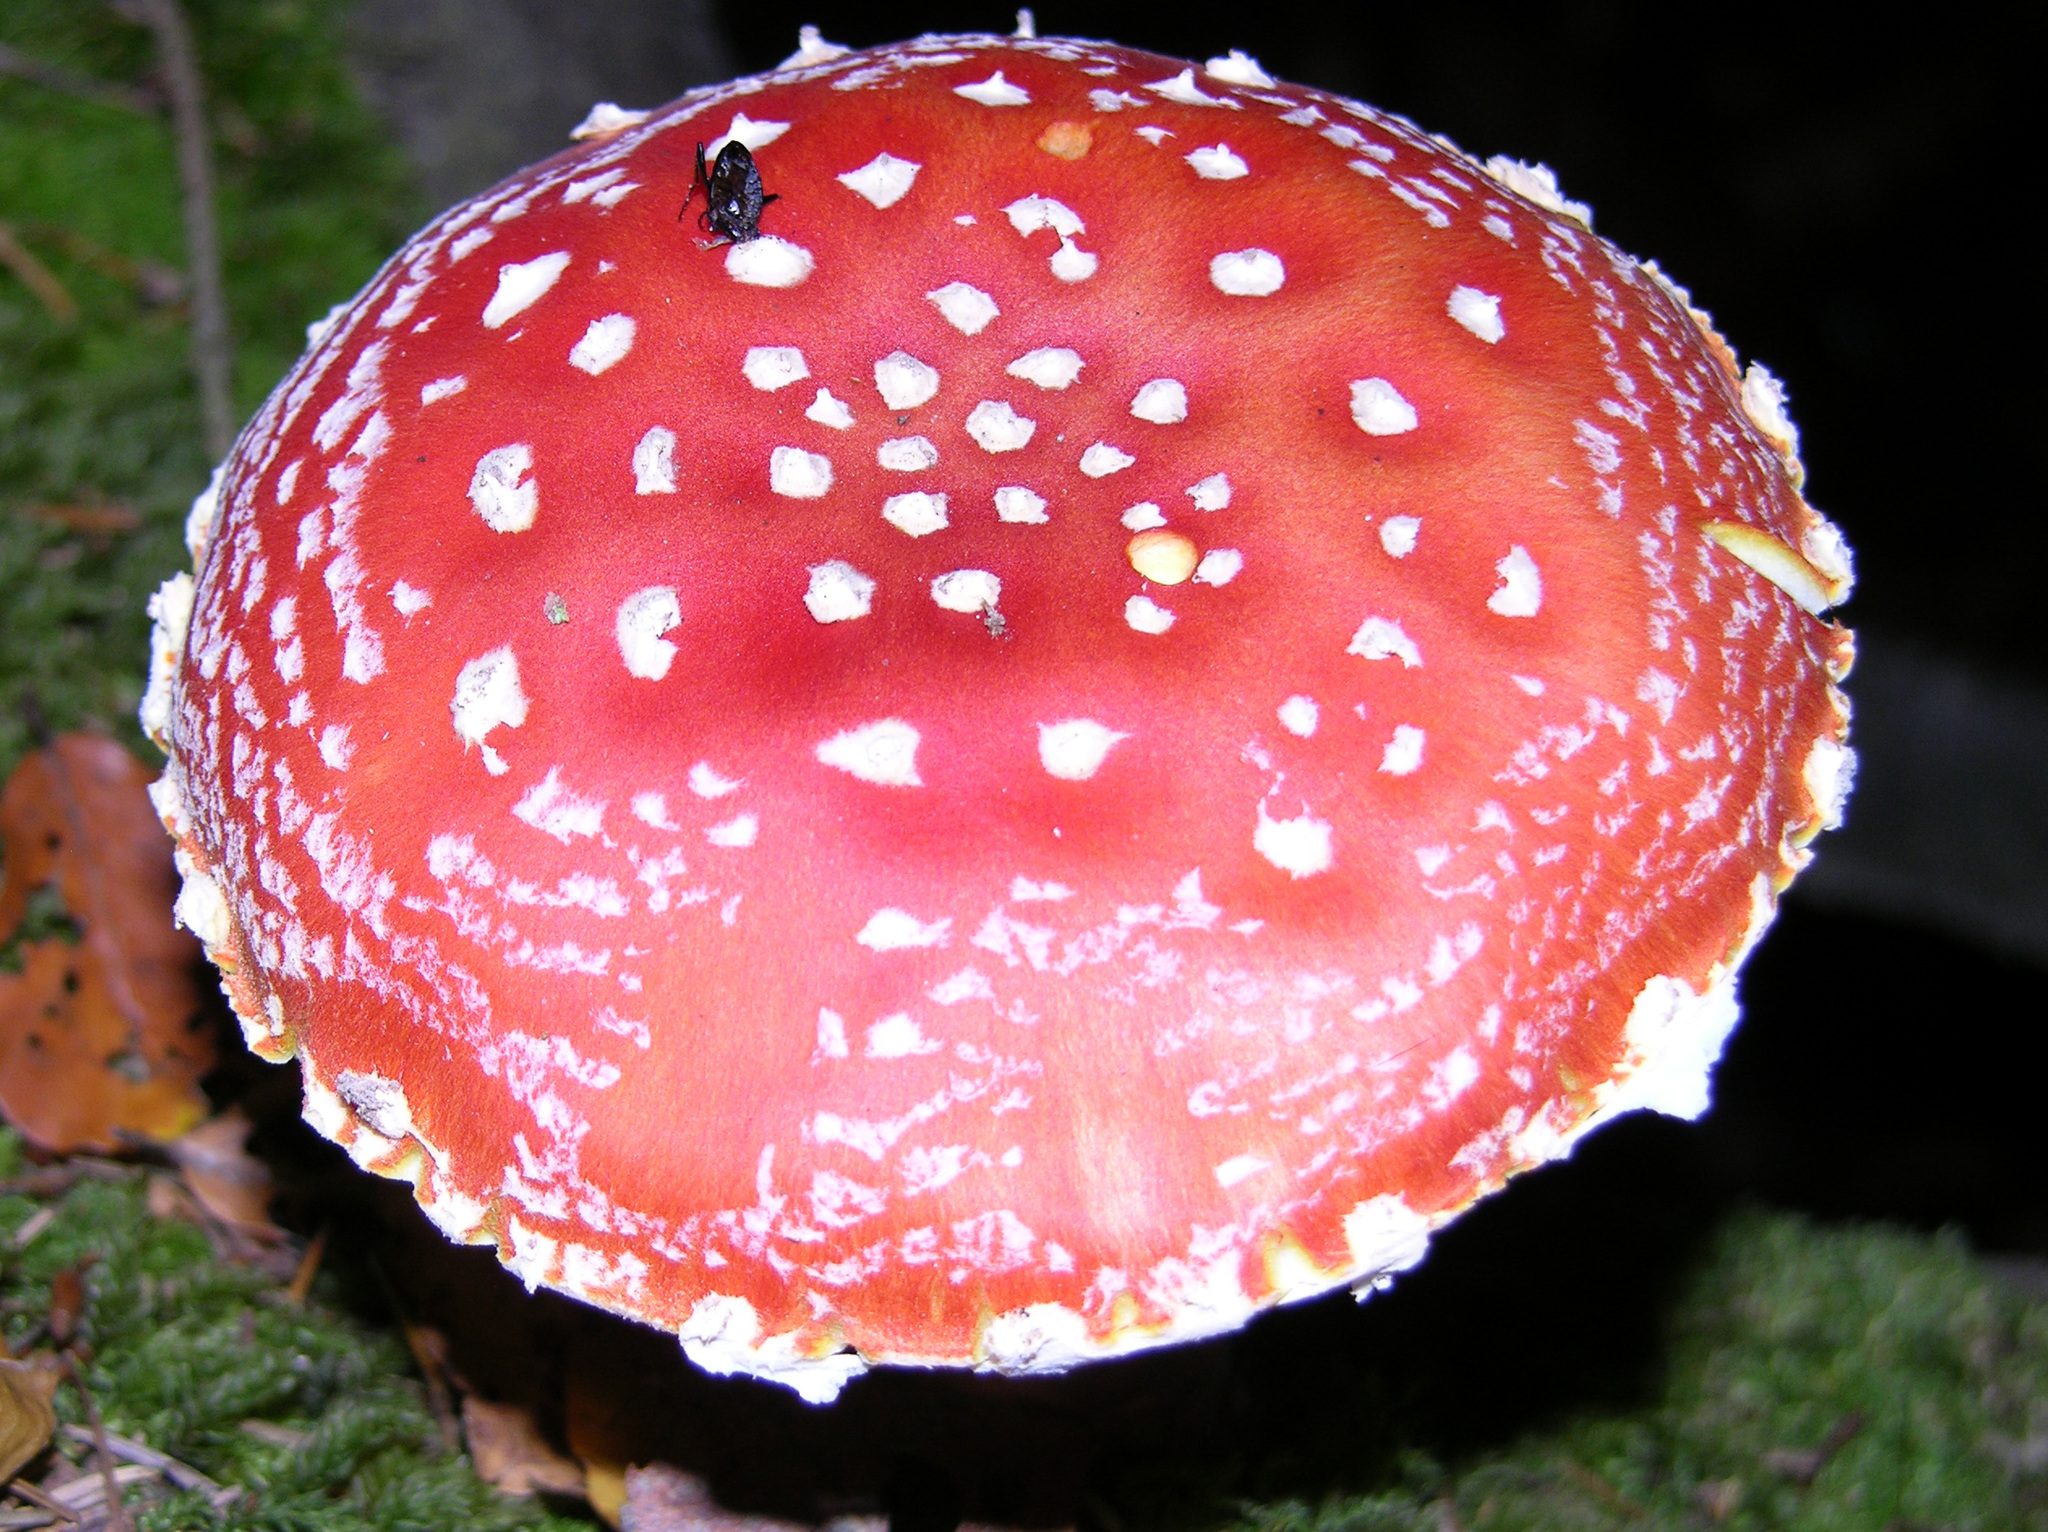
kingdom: Fungi
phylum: Basidiomycota
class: Agaricomycetes
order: Agaricales
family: Amanitaceae
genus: Amanita
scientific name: Amanita muscaria
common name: Fly agaric
